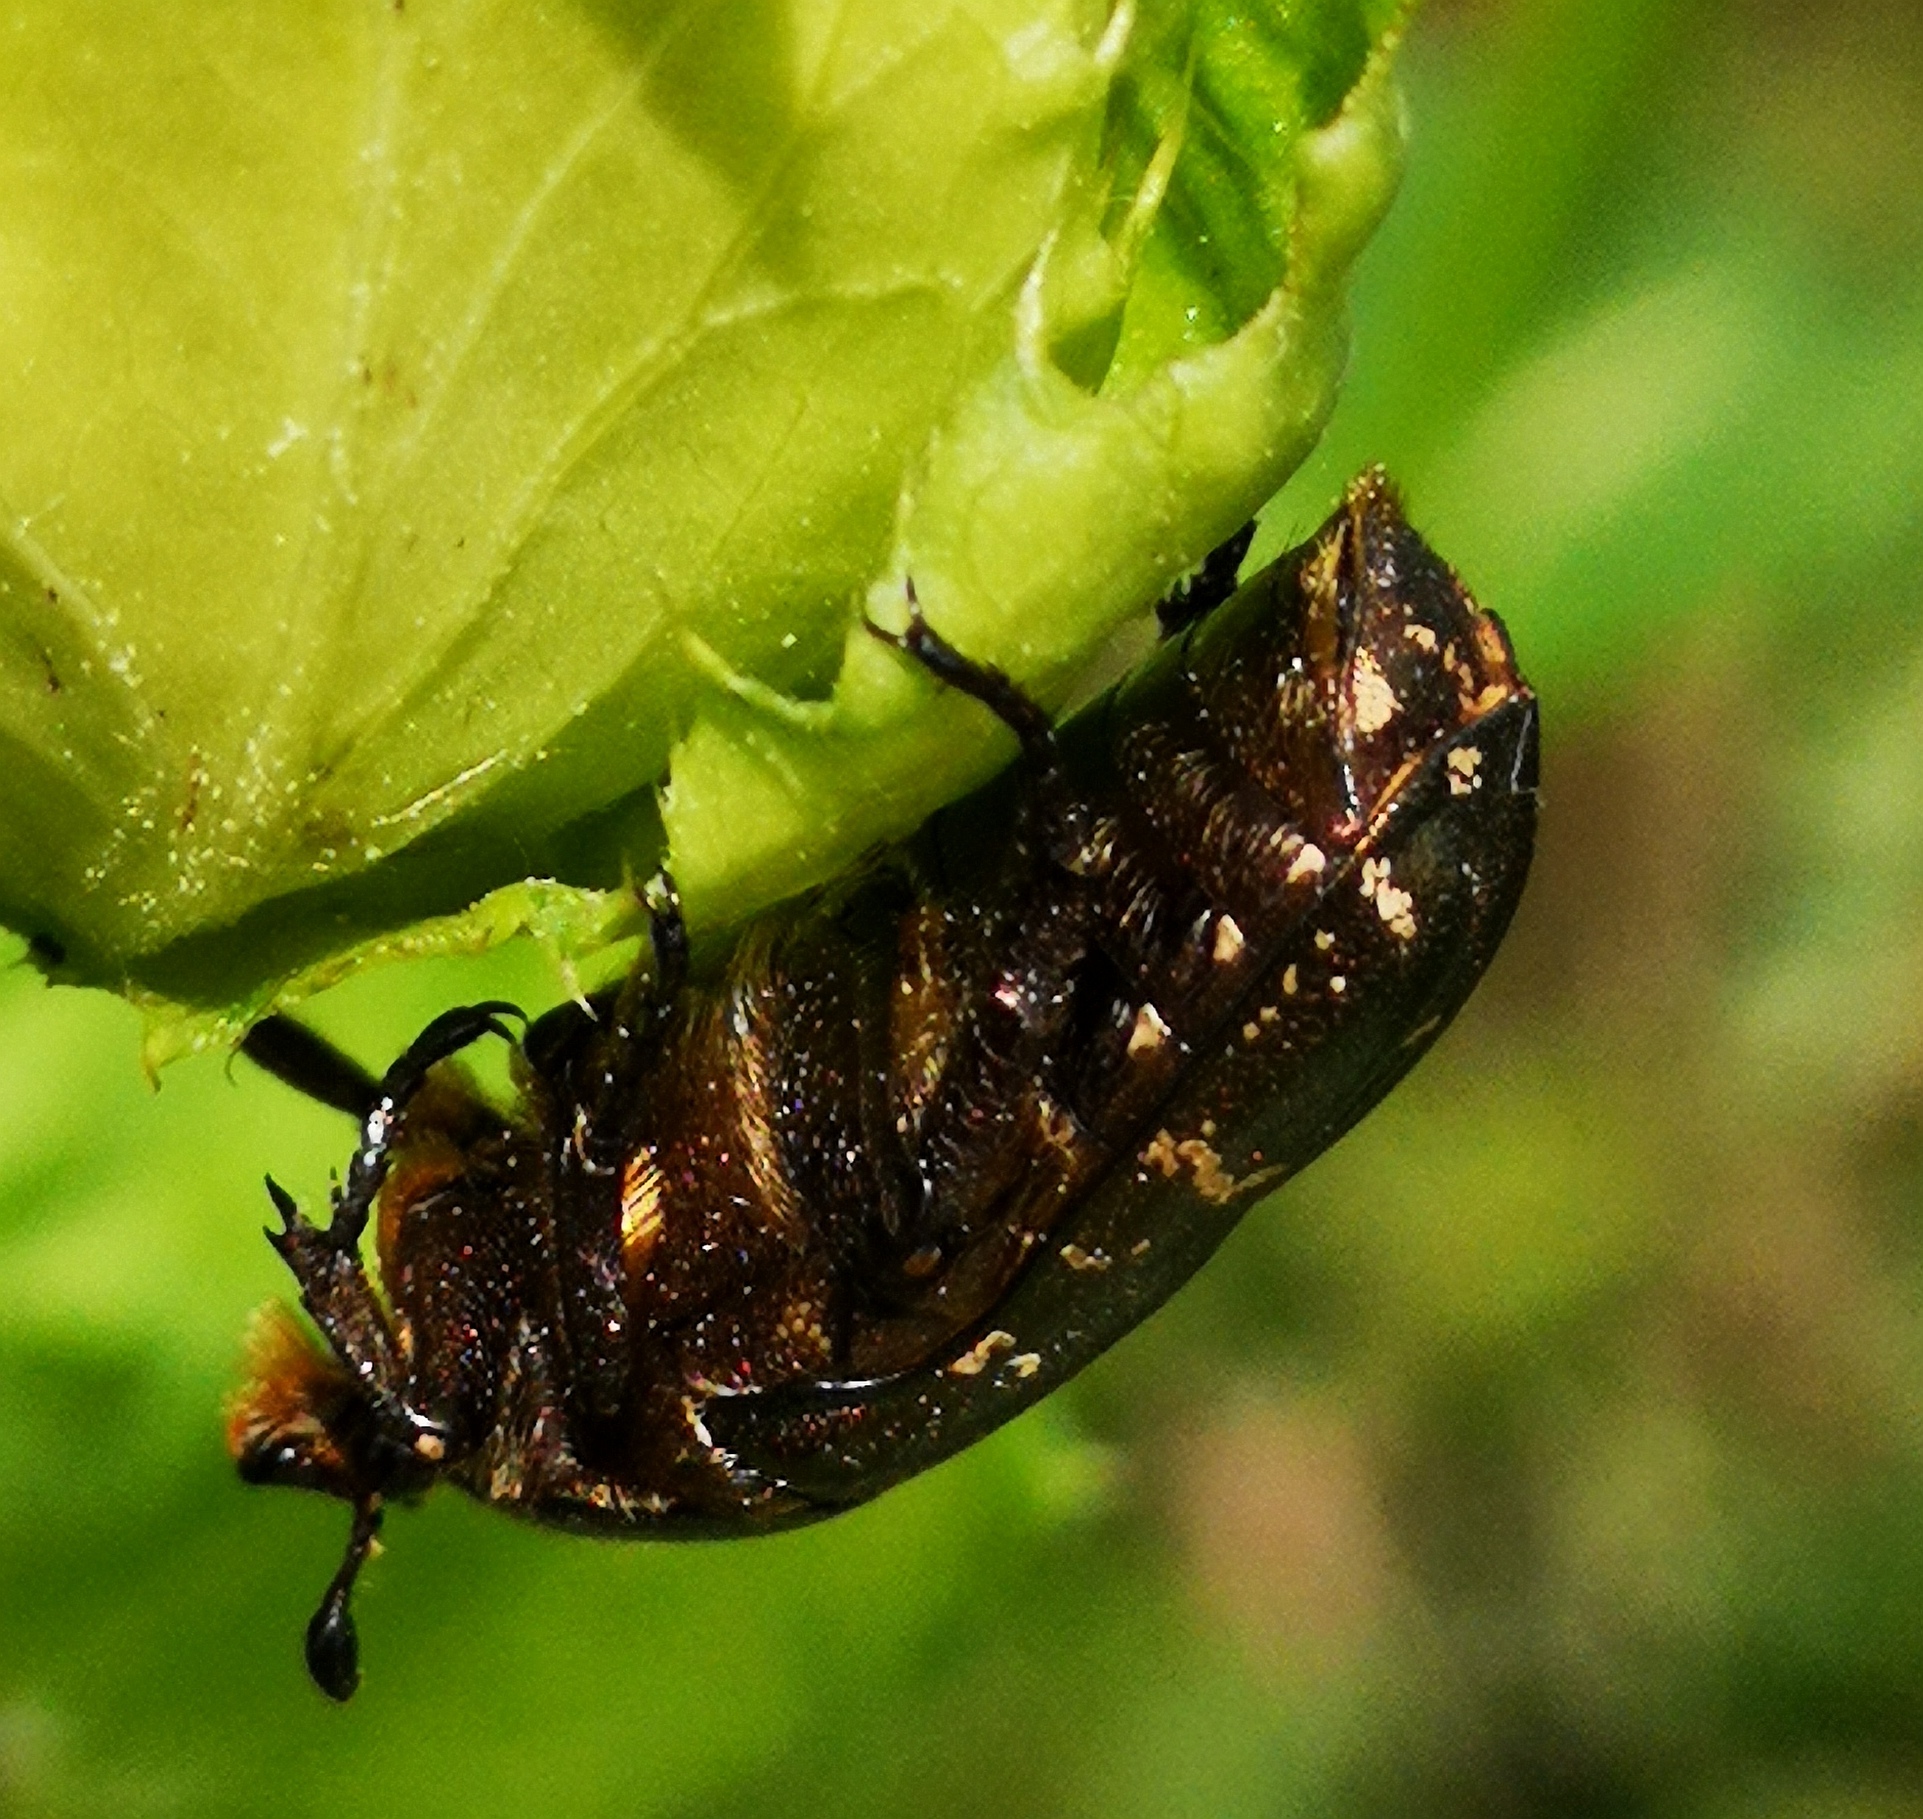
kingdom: Animalia
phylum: Arthropoda
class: Insecta
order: Coleoptera
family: Scarabaeidae
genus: Protaetia
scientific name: Protaetia cuprea
